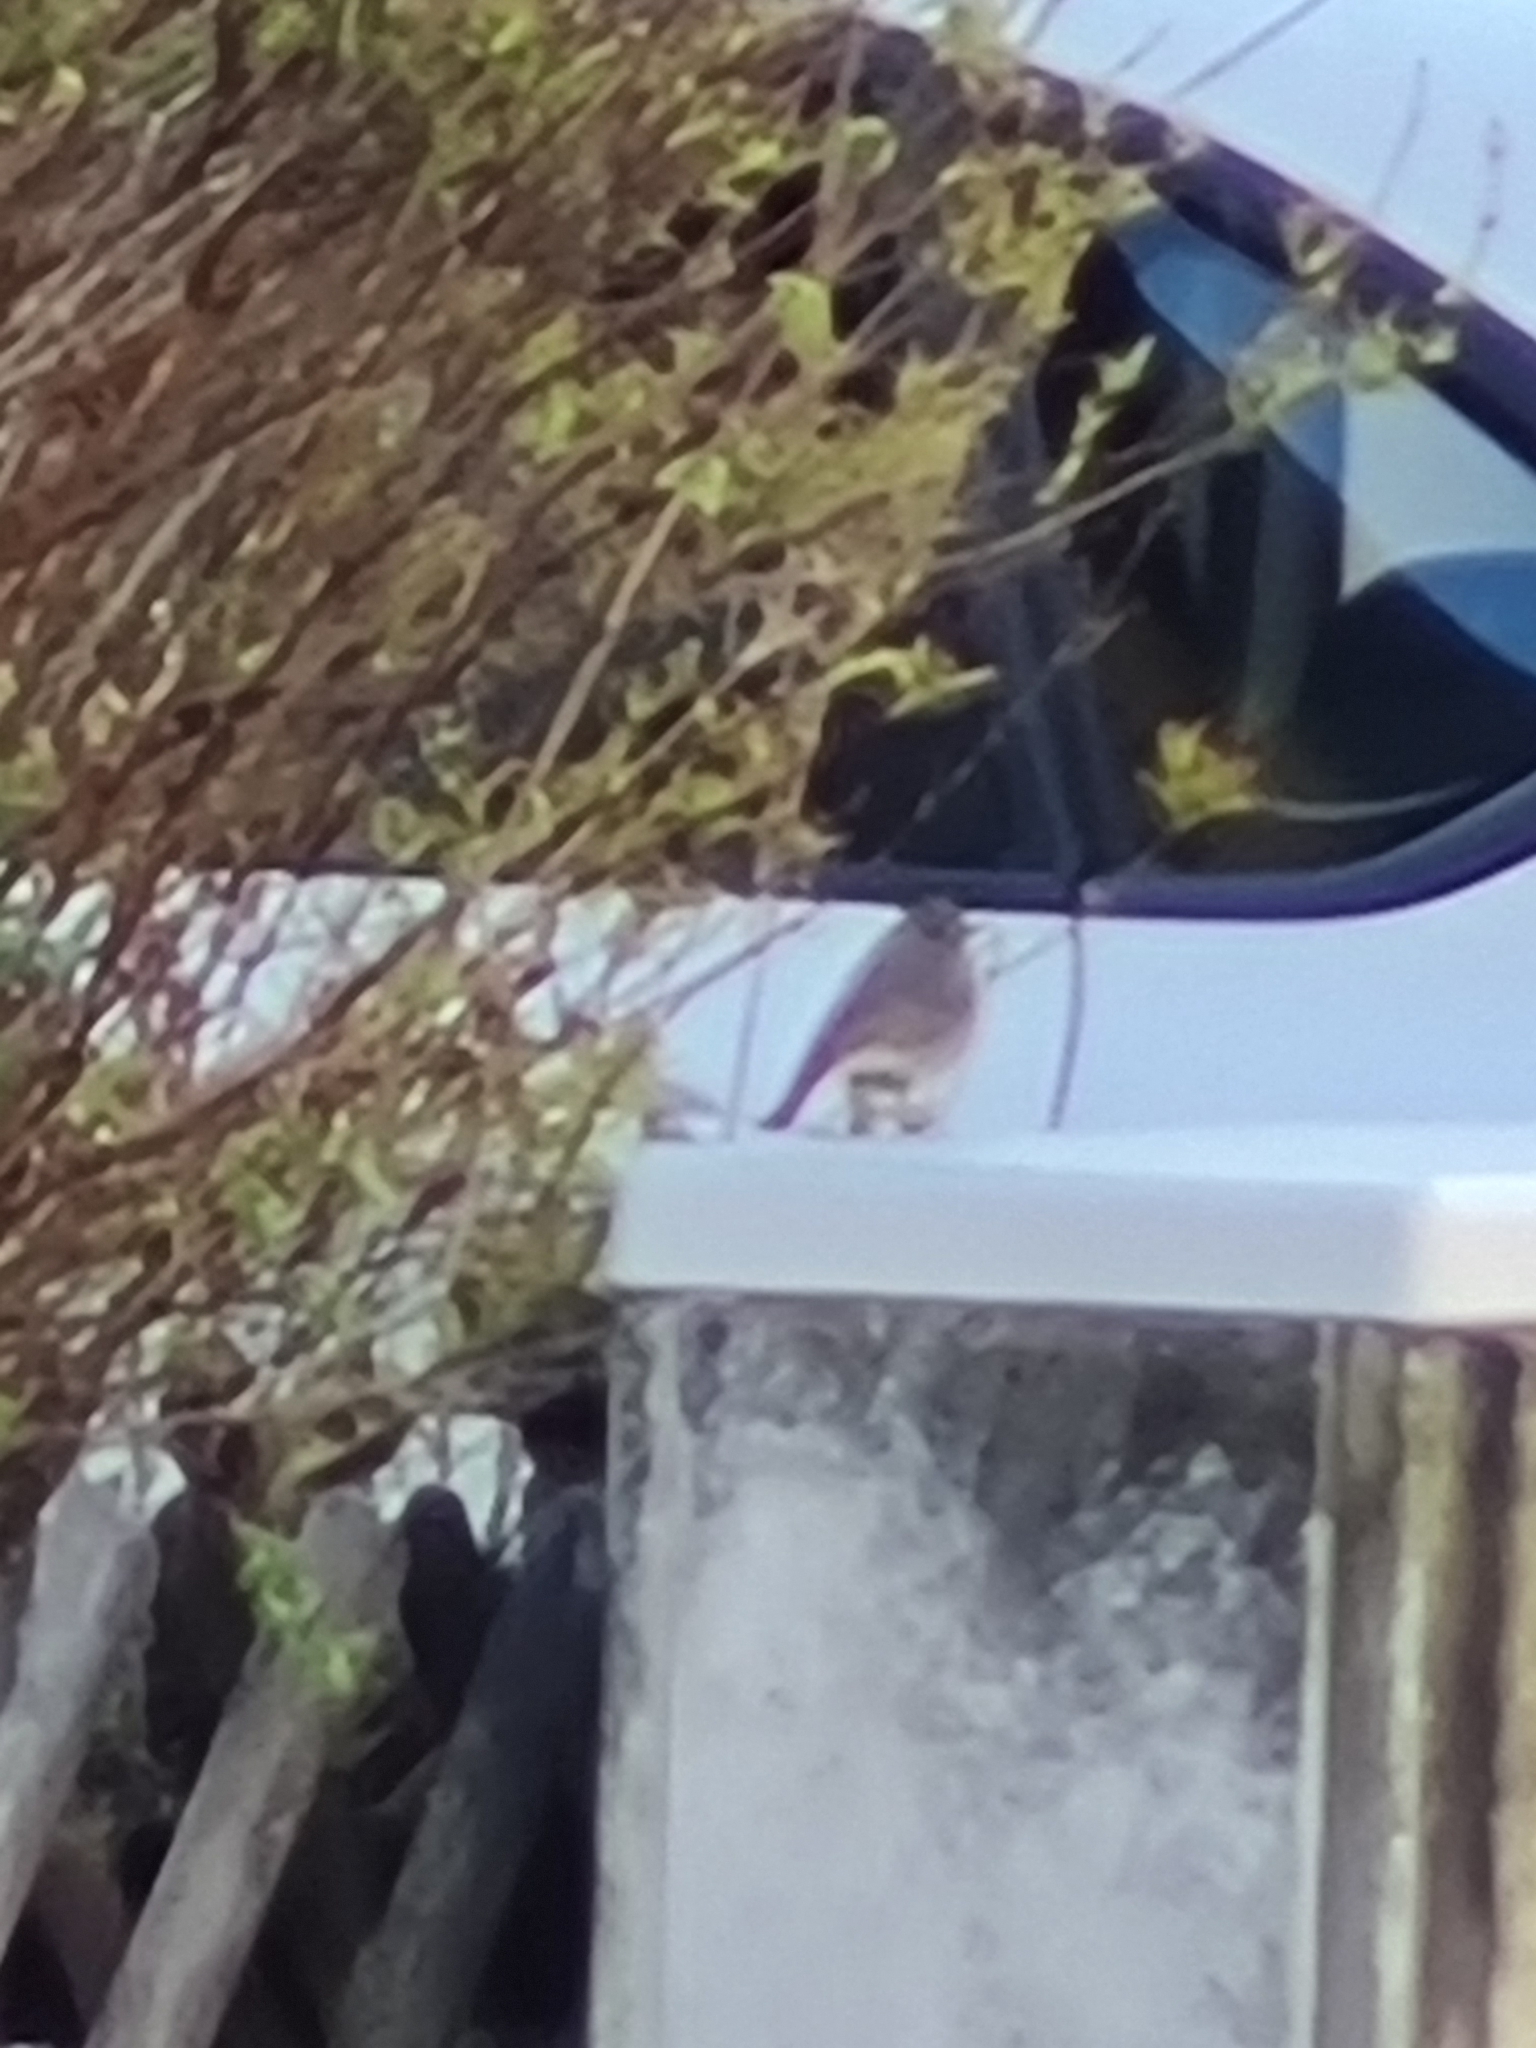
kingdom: Animalia
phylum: Chordata
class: Aves
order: Passeriformes
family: Muscicapidae
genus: Phoenicurus
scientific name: Phoenicurus ochruros
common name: Black redstart
